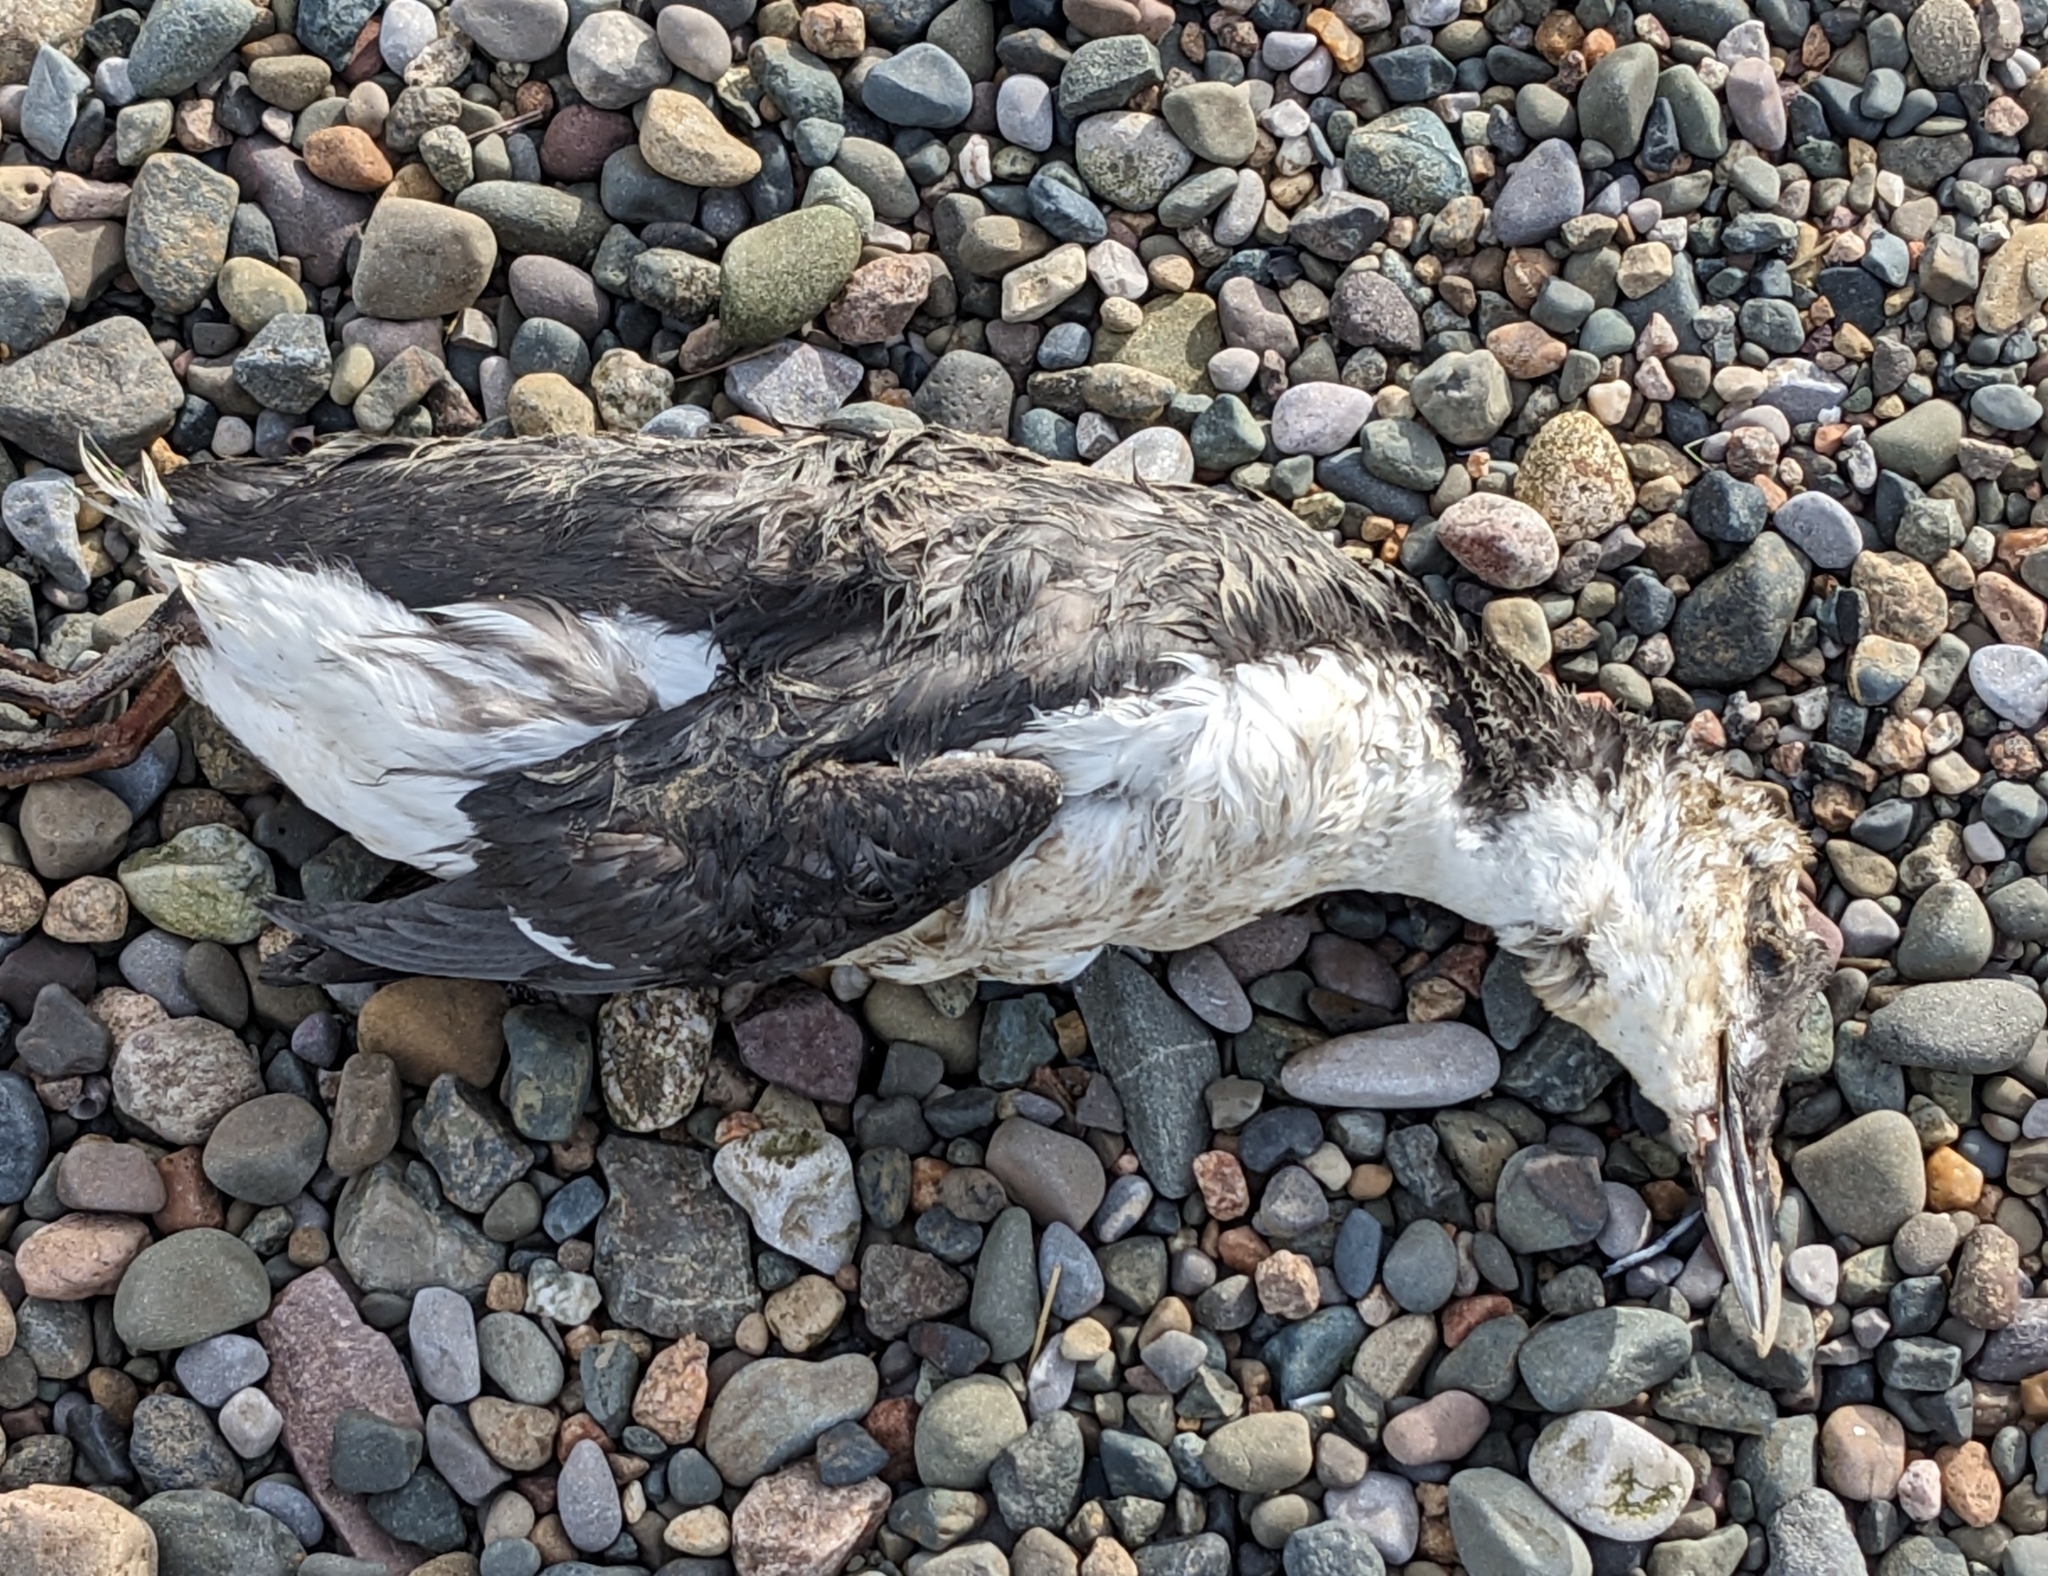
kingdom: Animalia
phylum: Chordata
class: Aves
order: Charadriiformes
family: Alcidae
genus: Uria
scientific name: Uria aalge
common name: Common murre
